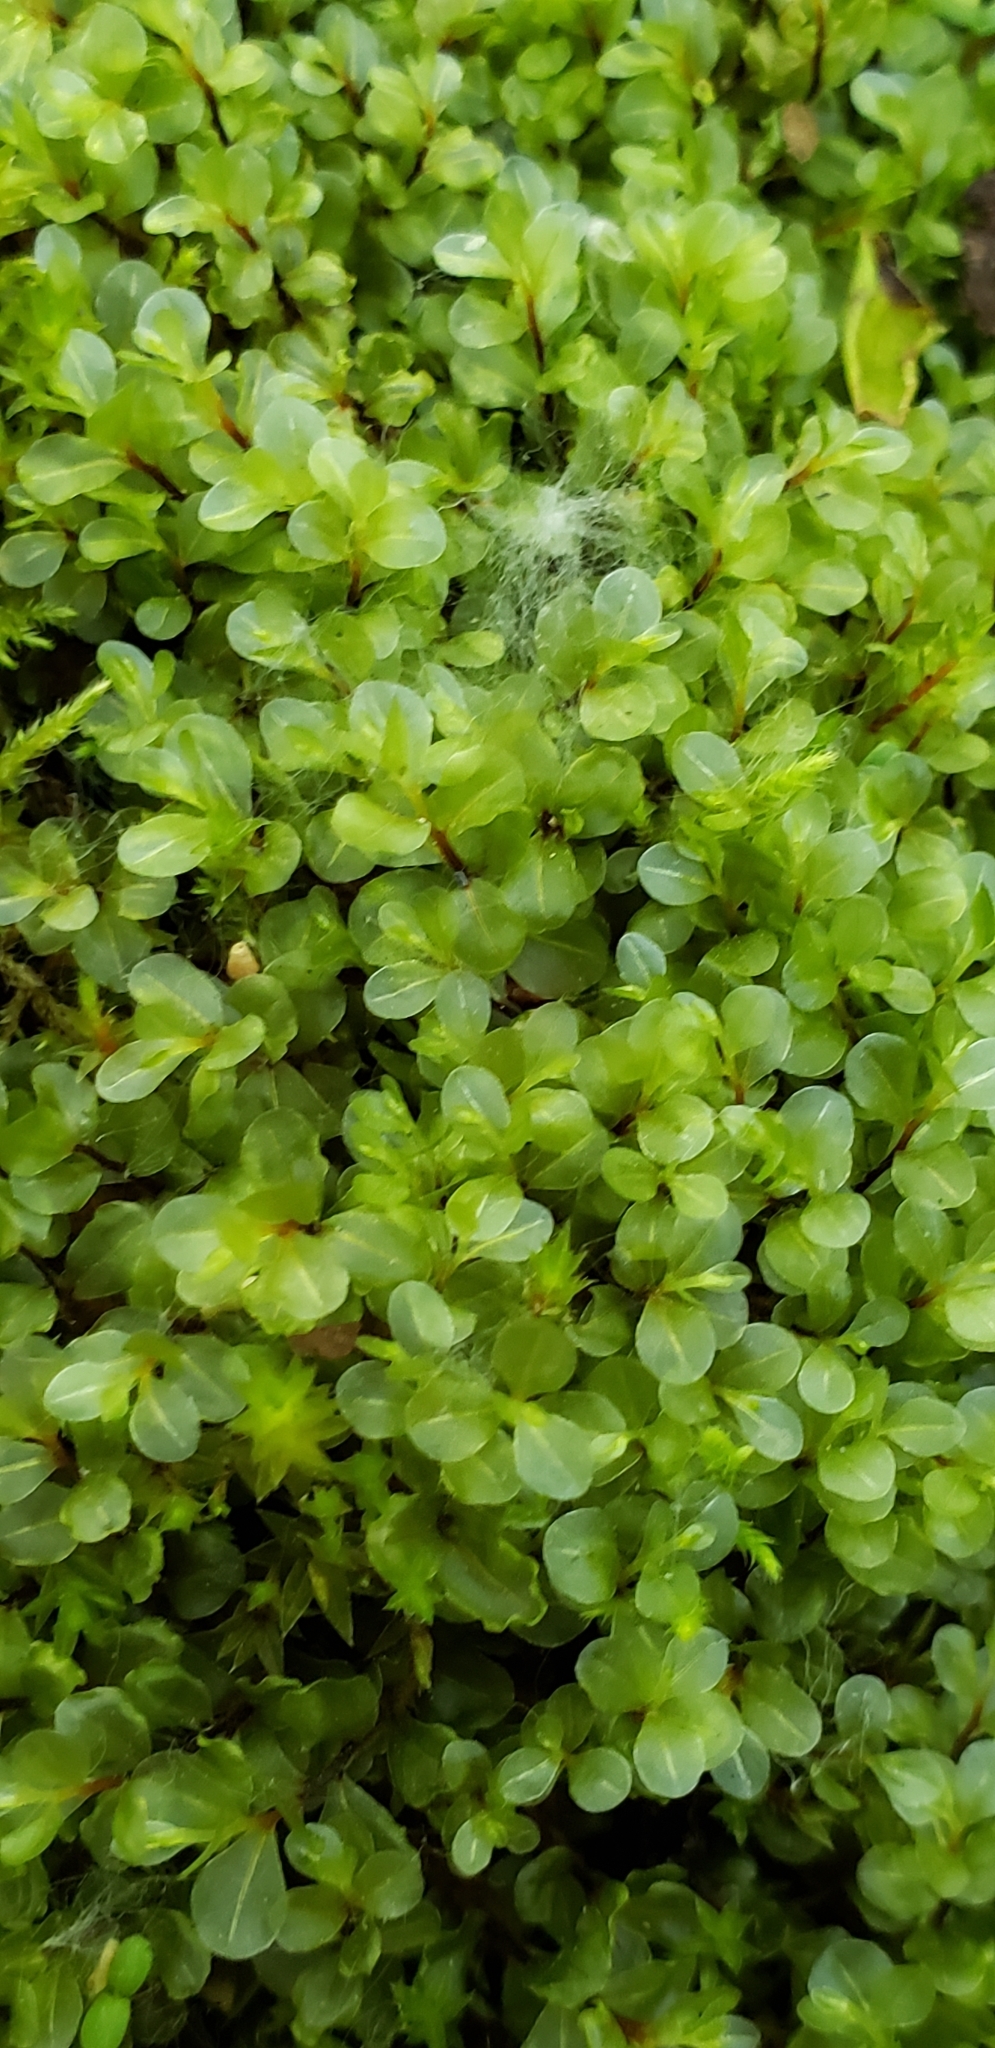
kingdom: Plantae
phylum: Bryophyta
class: Bryopsida
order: Bryales
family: Mniaceae
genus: Rhizomnium
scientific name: Rhizomnium glabrescens
